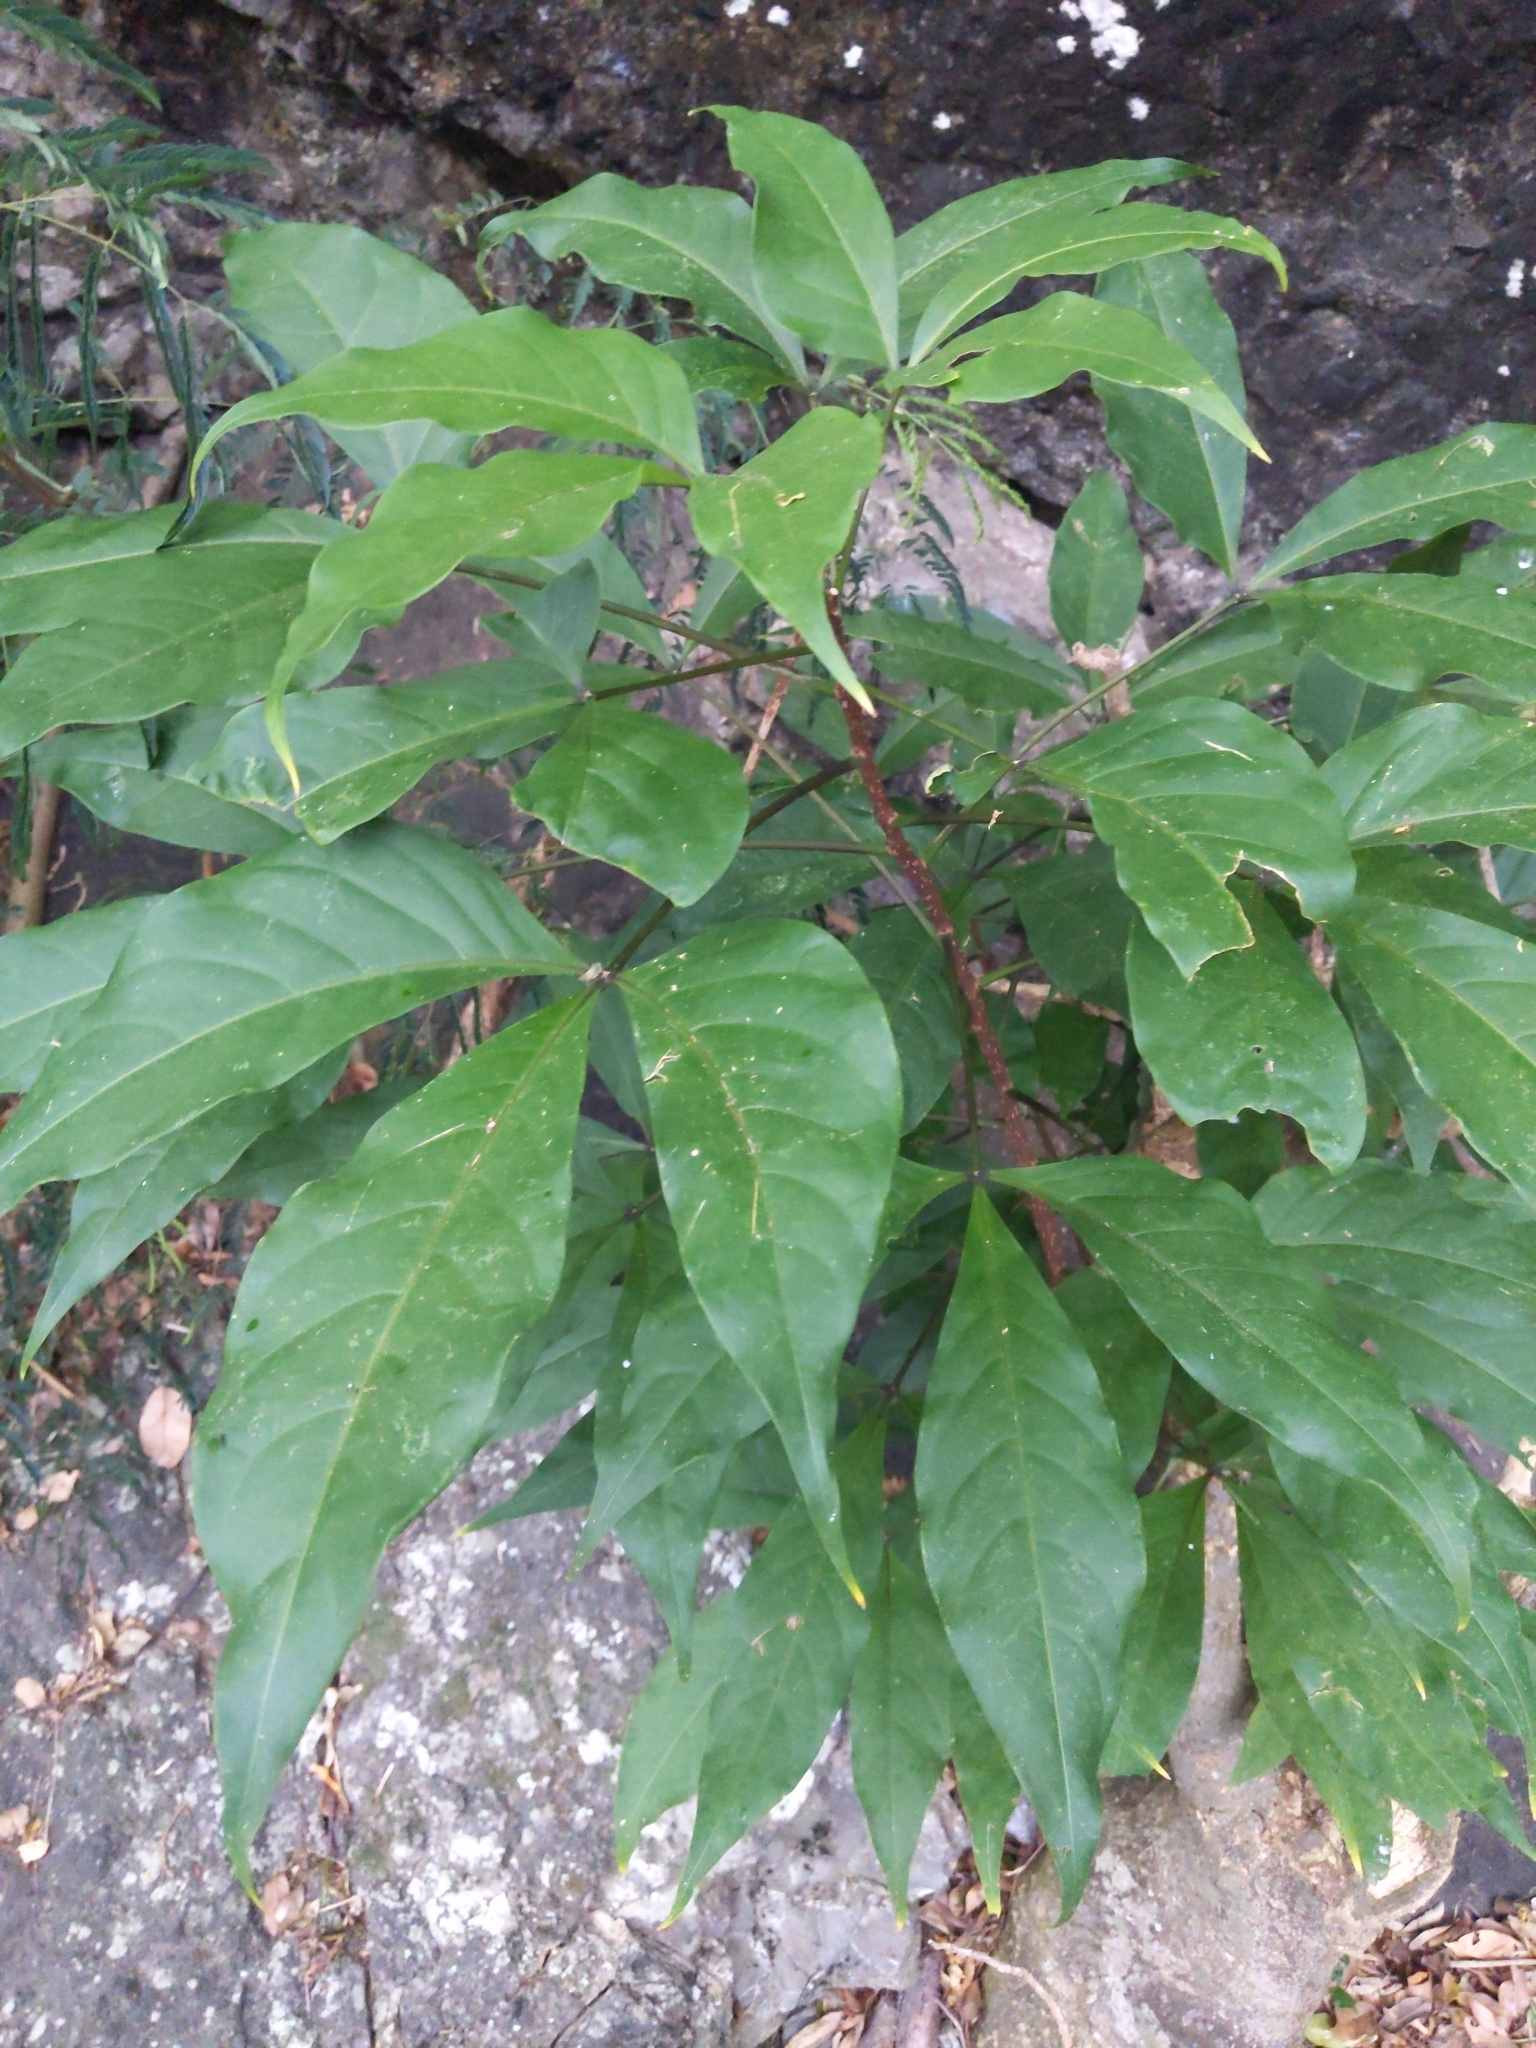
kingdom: Plantae
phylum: Tracheophyta
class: Magnoliopsida
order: Brassicales
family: Capparaceae
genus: Crateva
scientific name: Crateva formosensis
